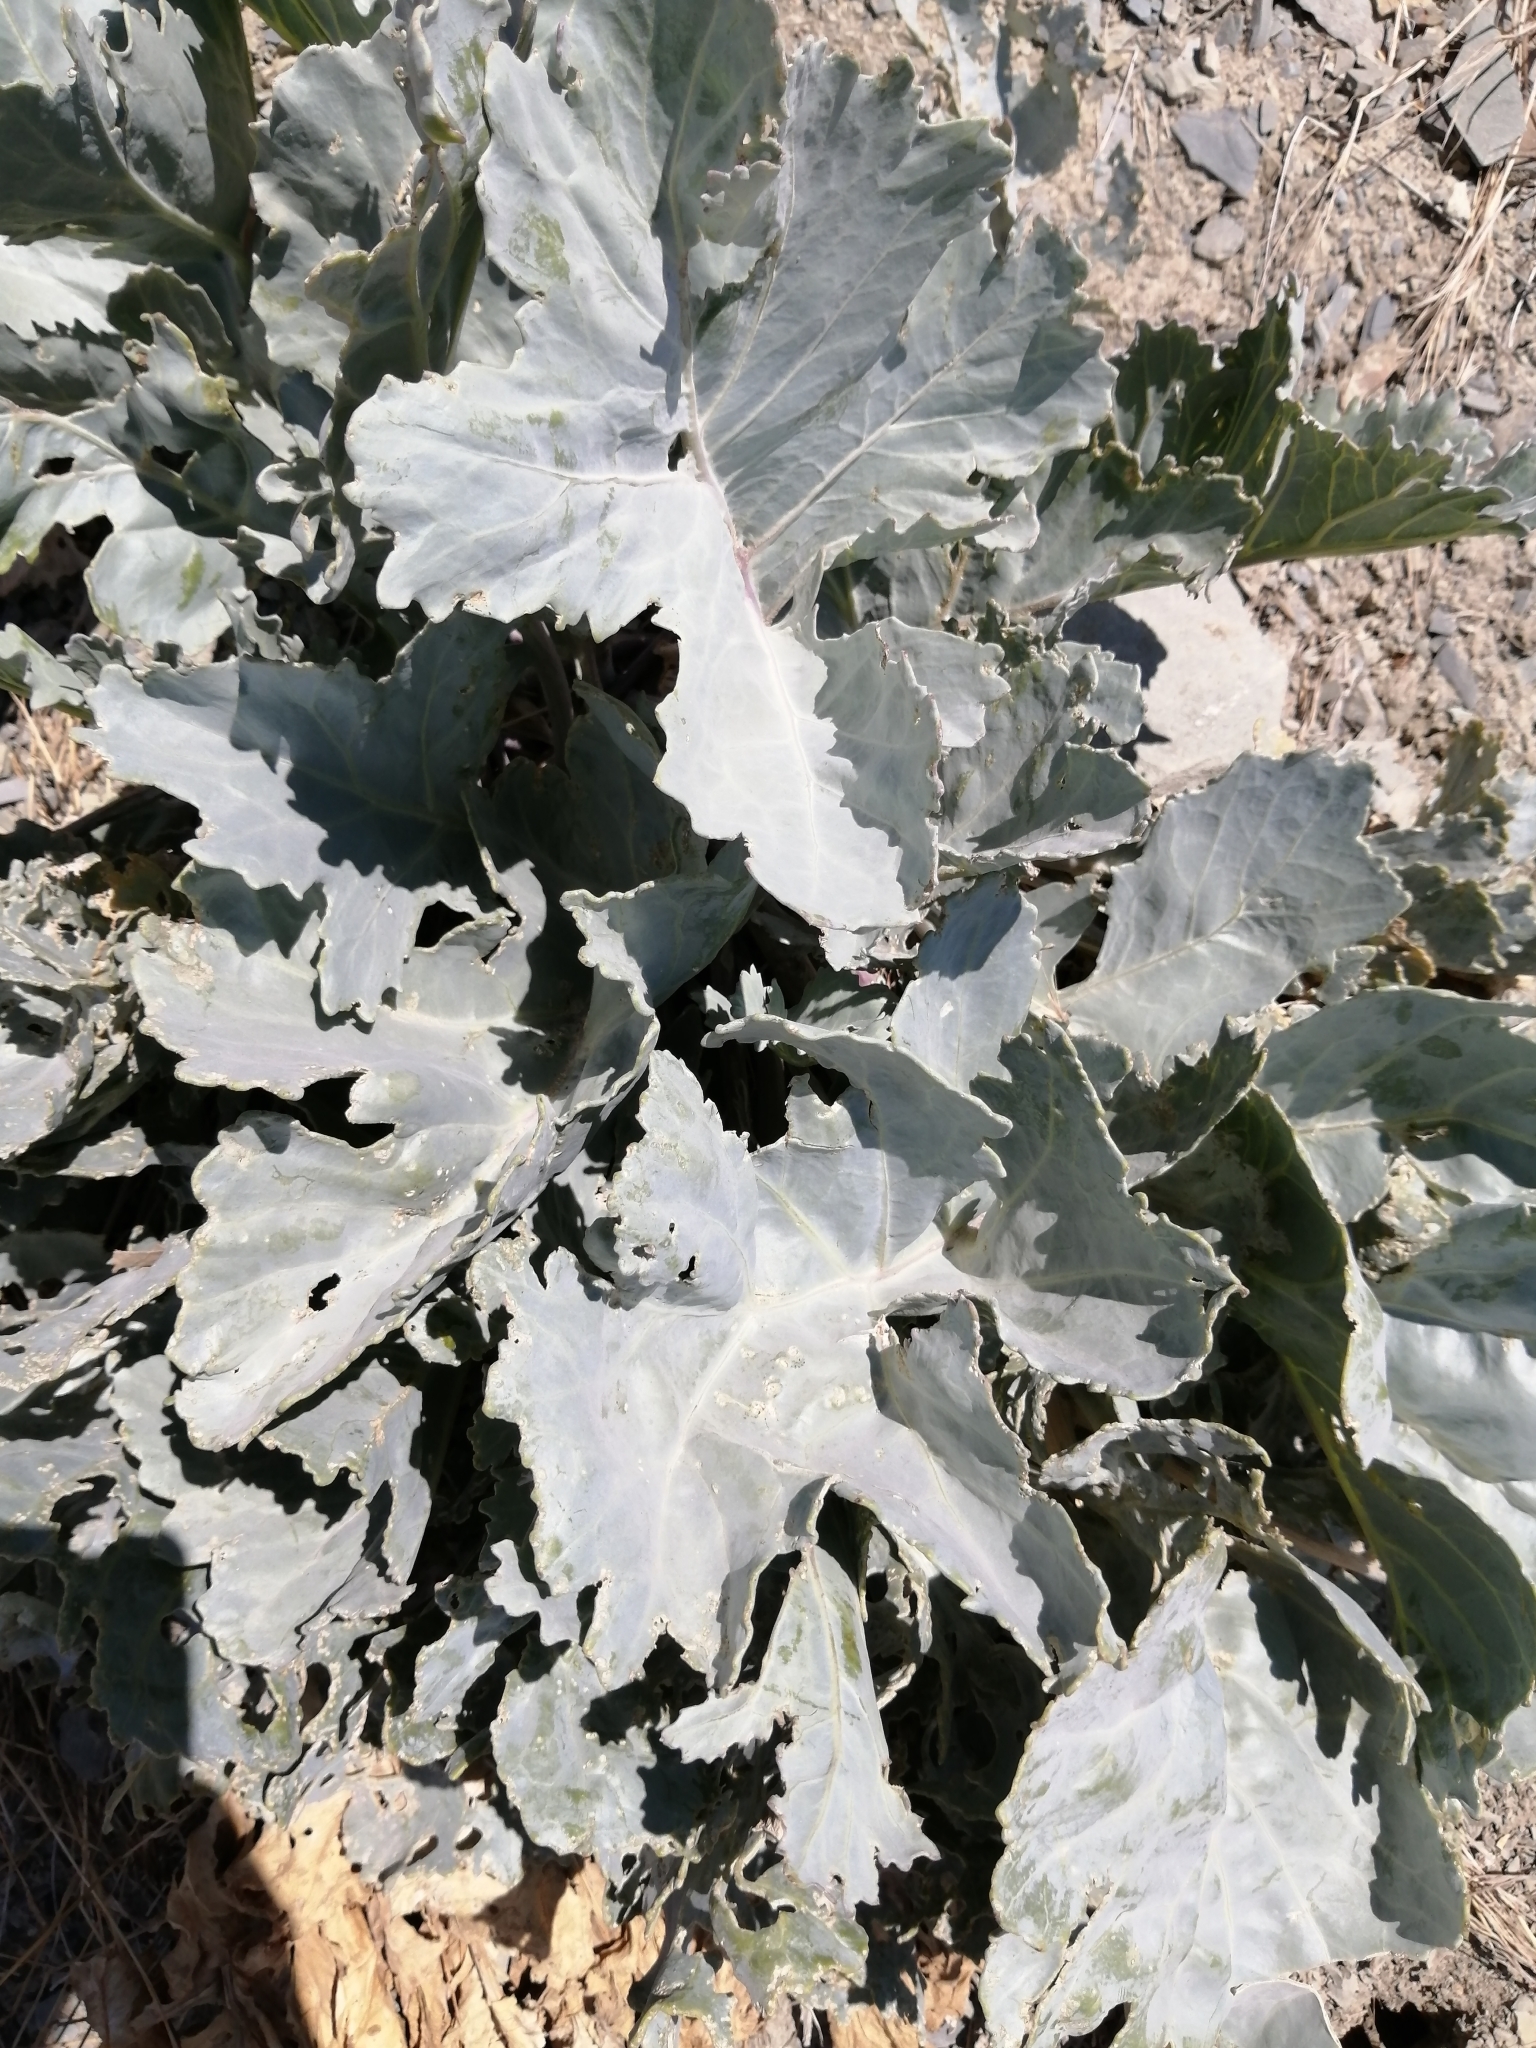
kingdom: Plantae
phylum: Tracheophyta
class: Magnoliopsida
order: Brassicales
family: Brassicaceae
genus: Crambe
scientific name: Crambe maritima
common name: Sea-kale
